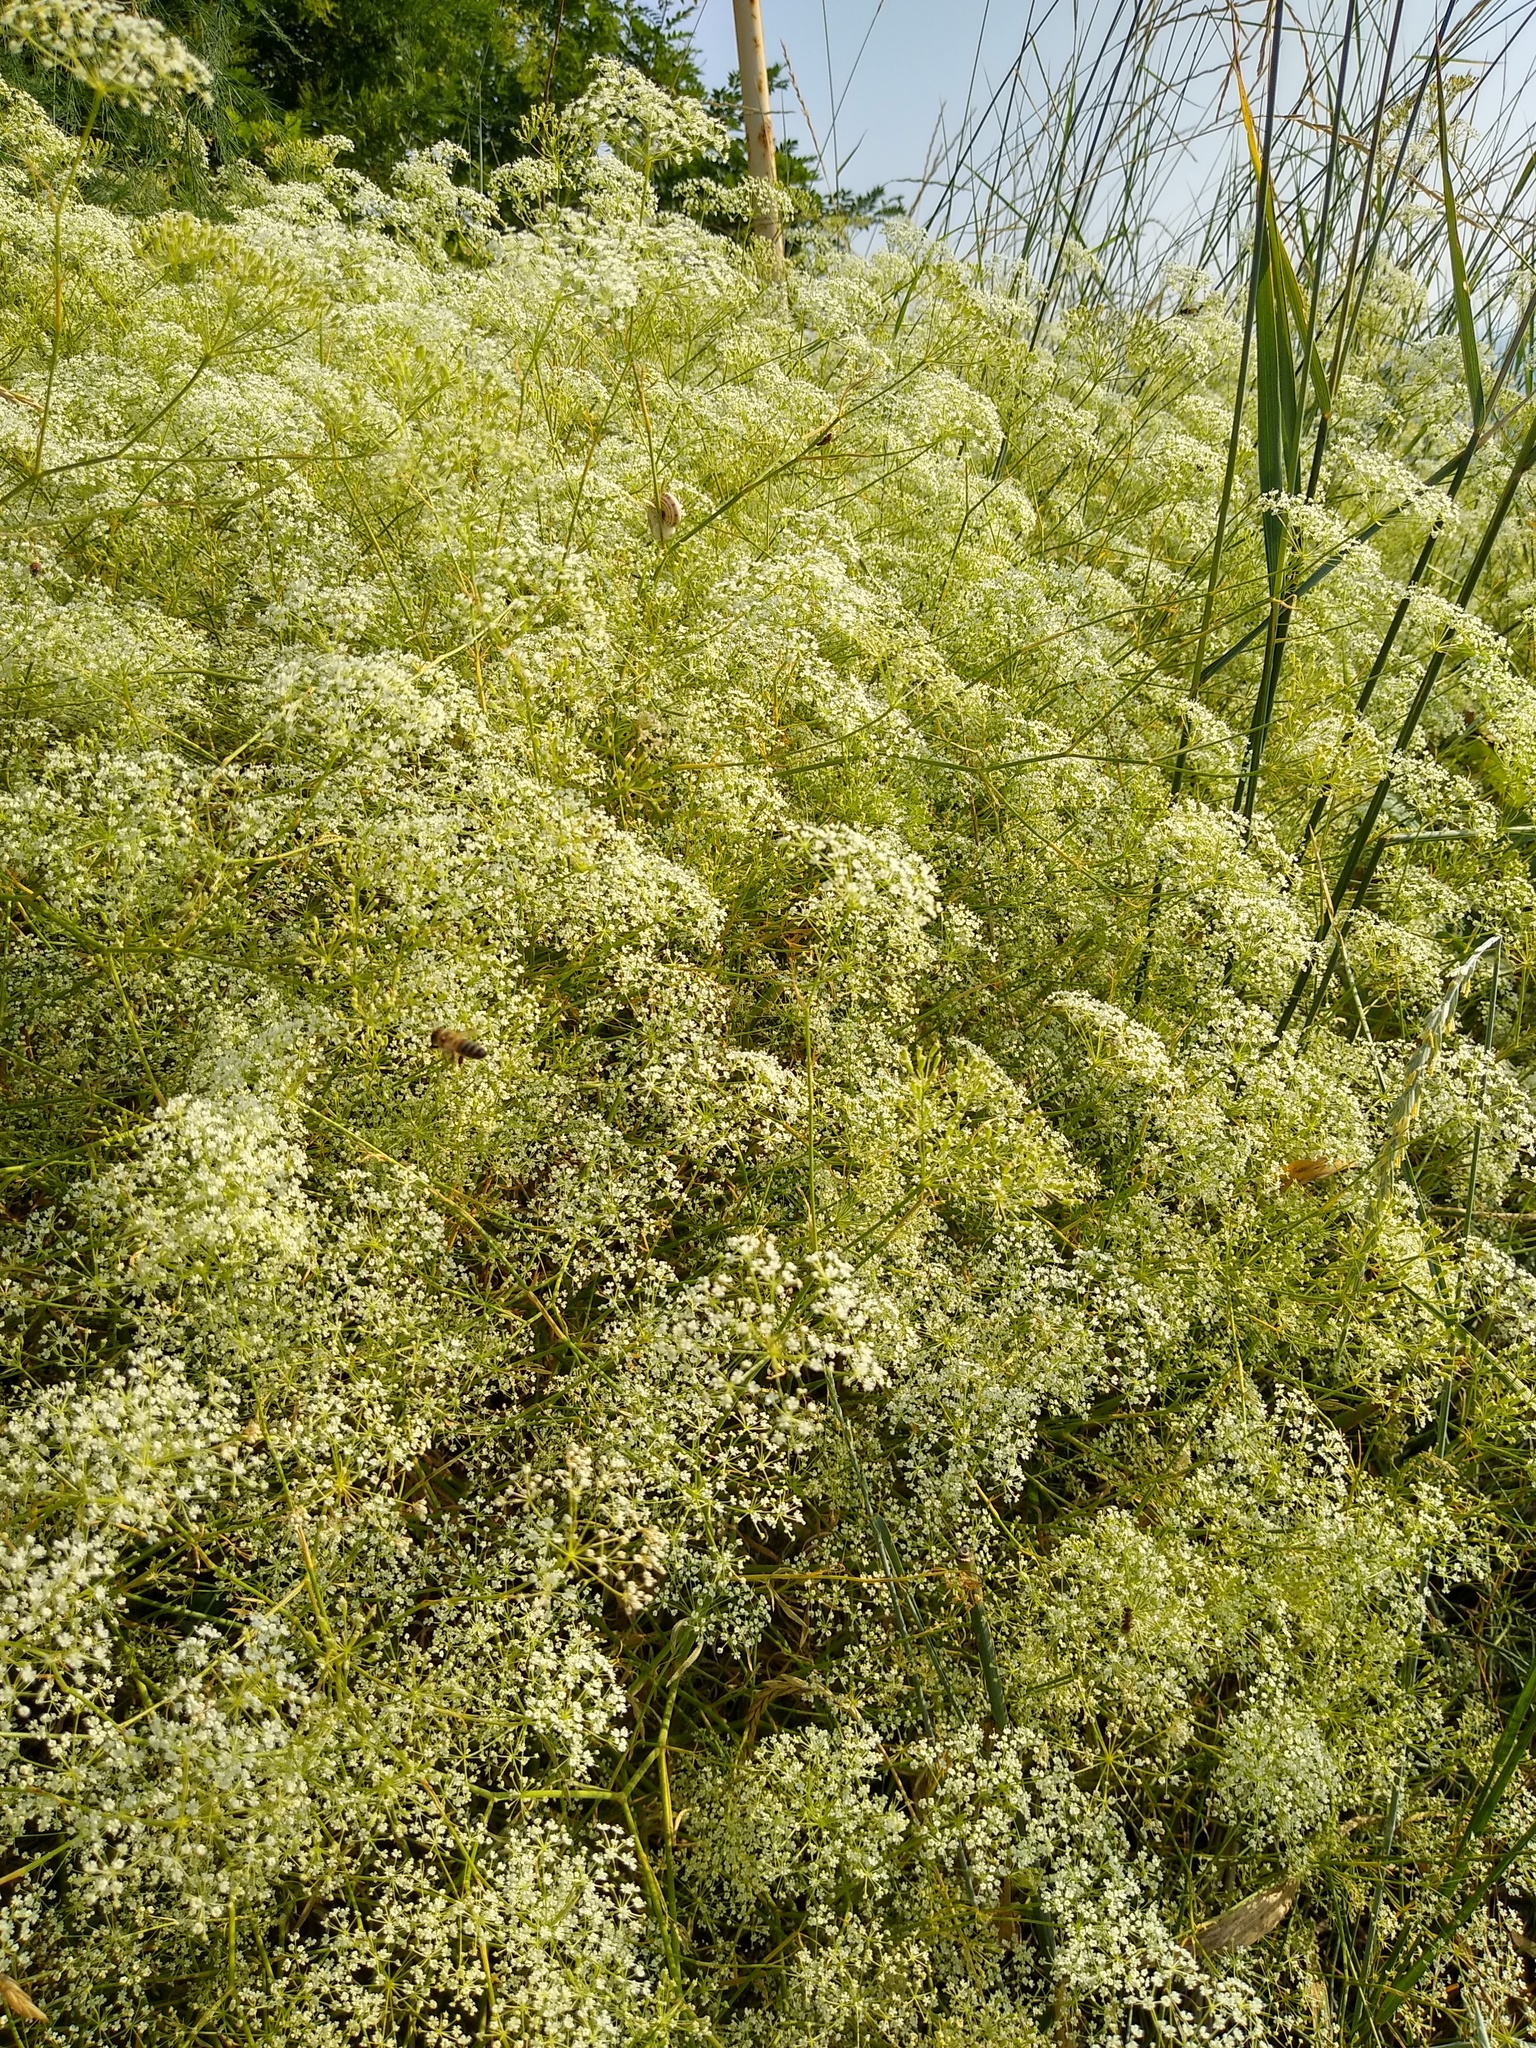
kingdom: Plantae
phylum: Tracheophyta
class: Magnoliopsida
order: Apiales
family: Apiaceae
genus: Falcaria
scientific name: Falcaria vulgaris
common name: Longleaf
